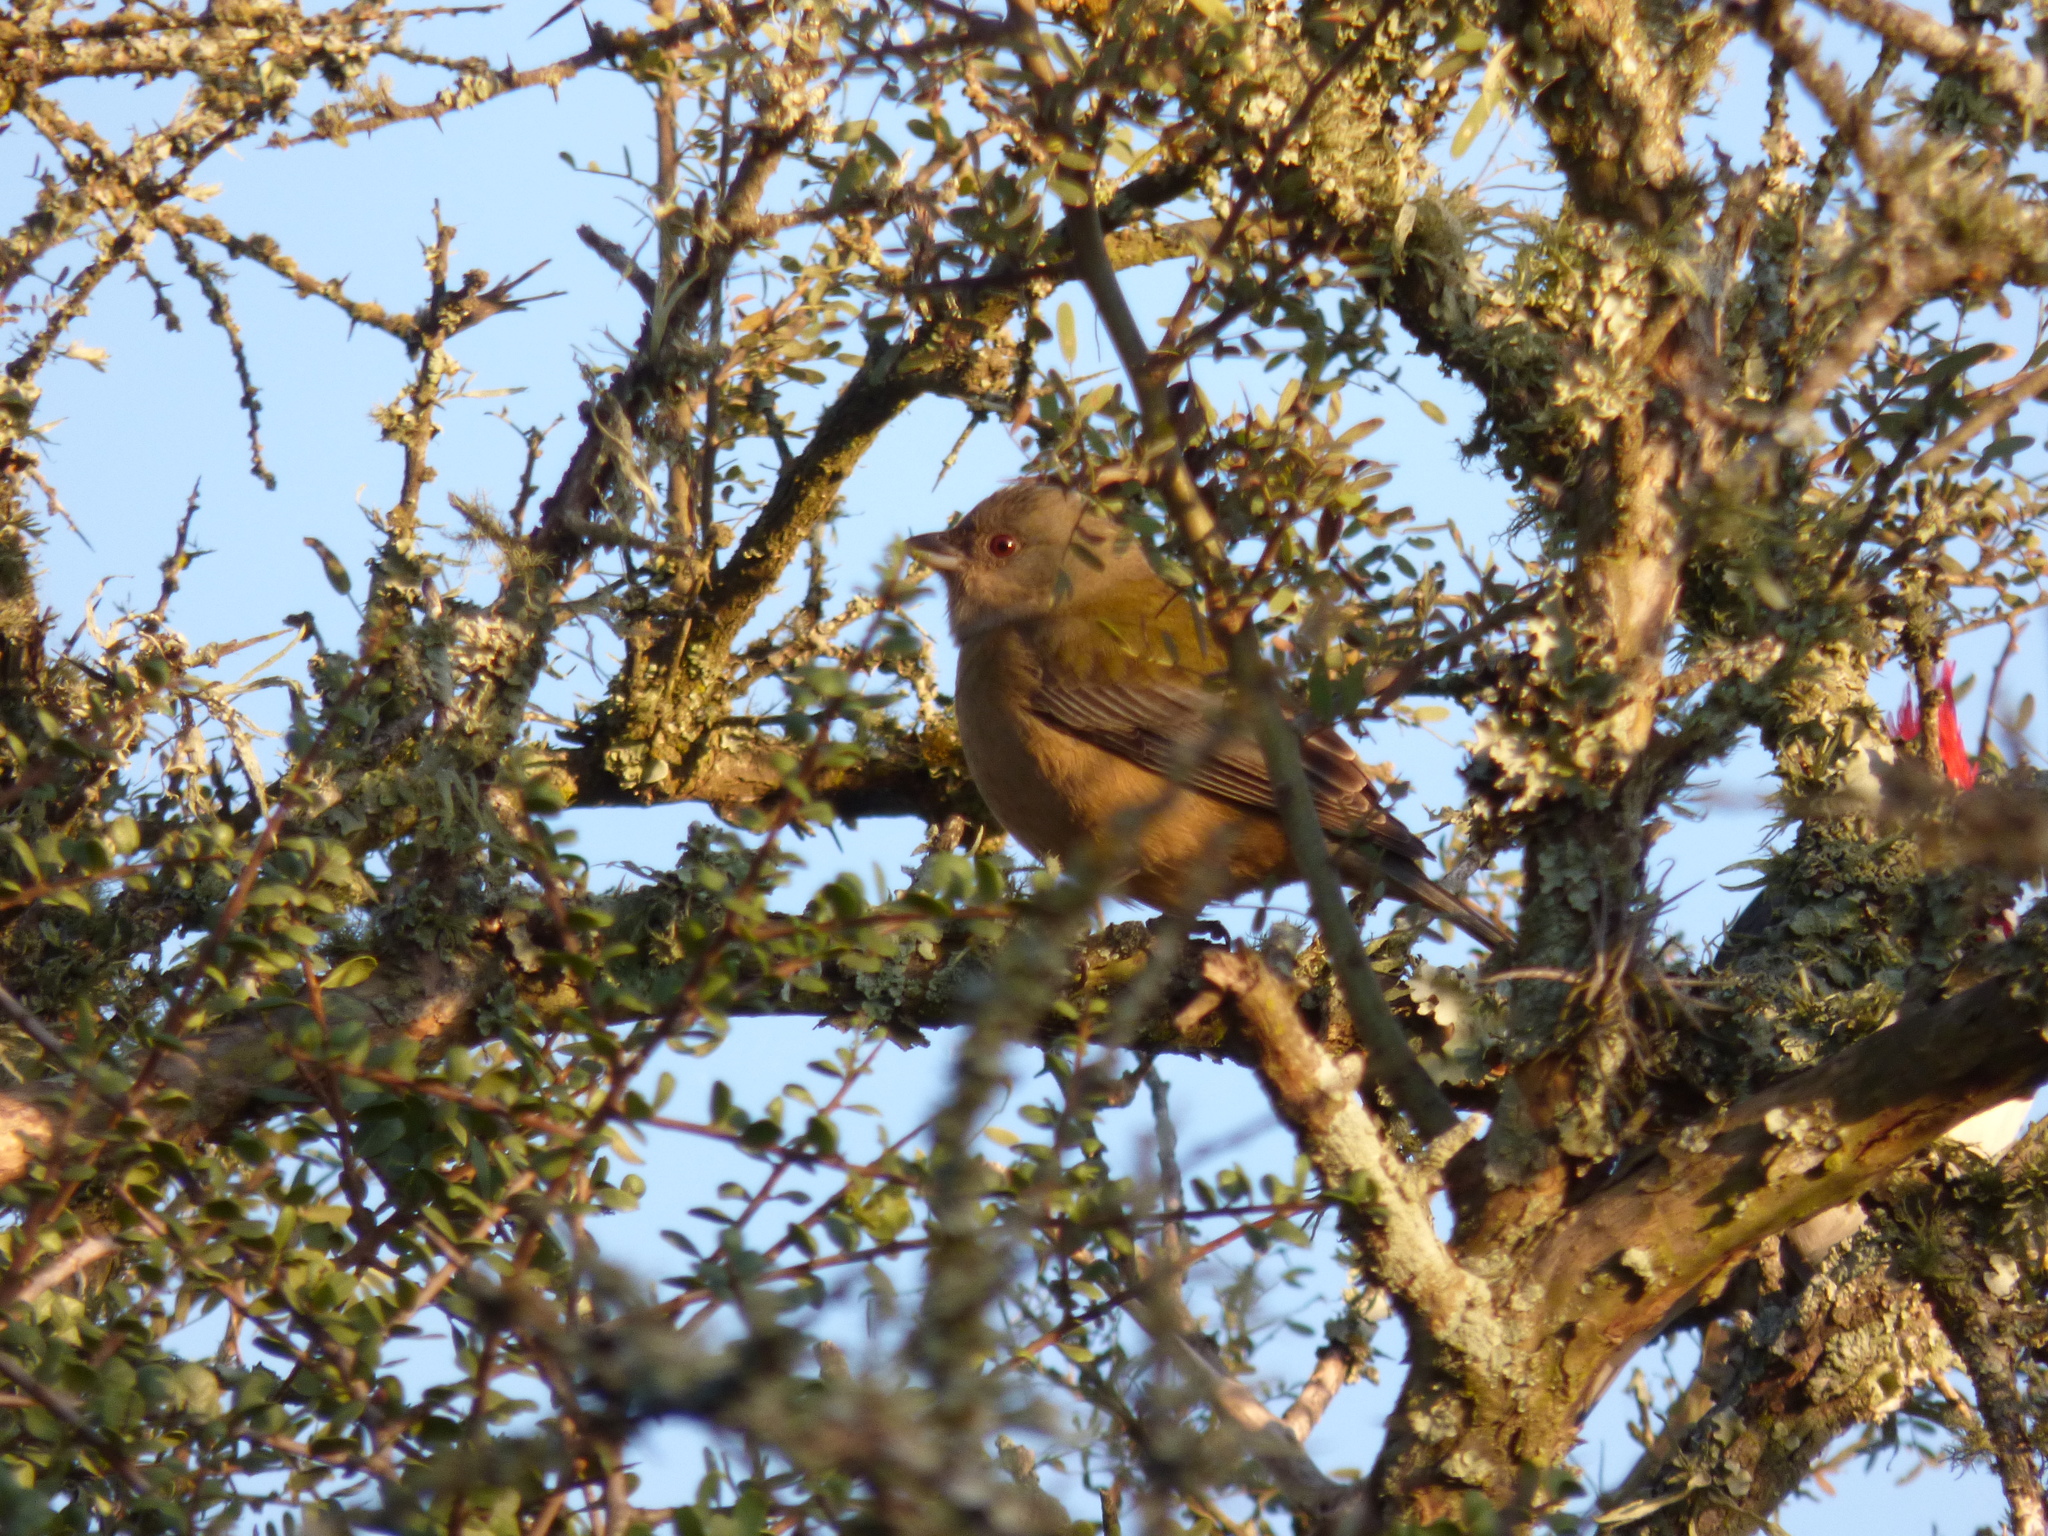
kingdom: Animalia
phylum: Chordata
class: Aves
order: Passeriformes
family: Thraupidae
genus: Rauenia
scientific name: Rauenia bonariensis
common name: Blue-and-yellow tanager
